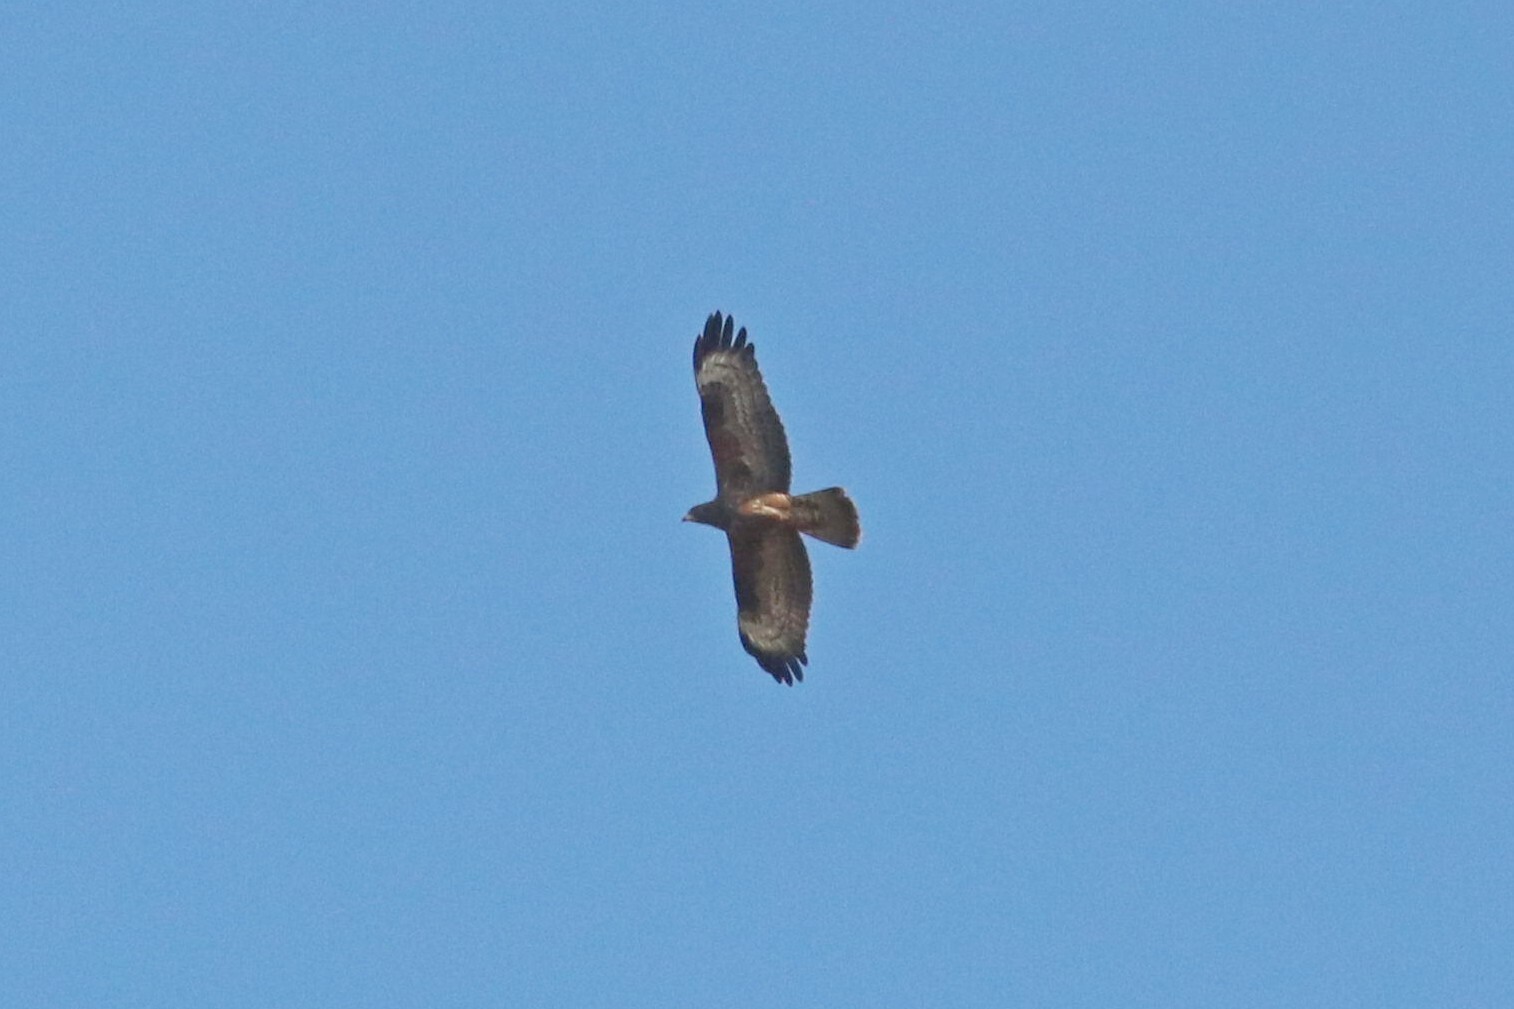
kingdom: Animalia
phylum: Chordata
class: Aves
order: Accipitriformes
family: Accipitridae
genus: Pernis
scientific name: Pernis apivorus
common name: European honey buzzard
